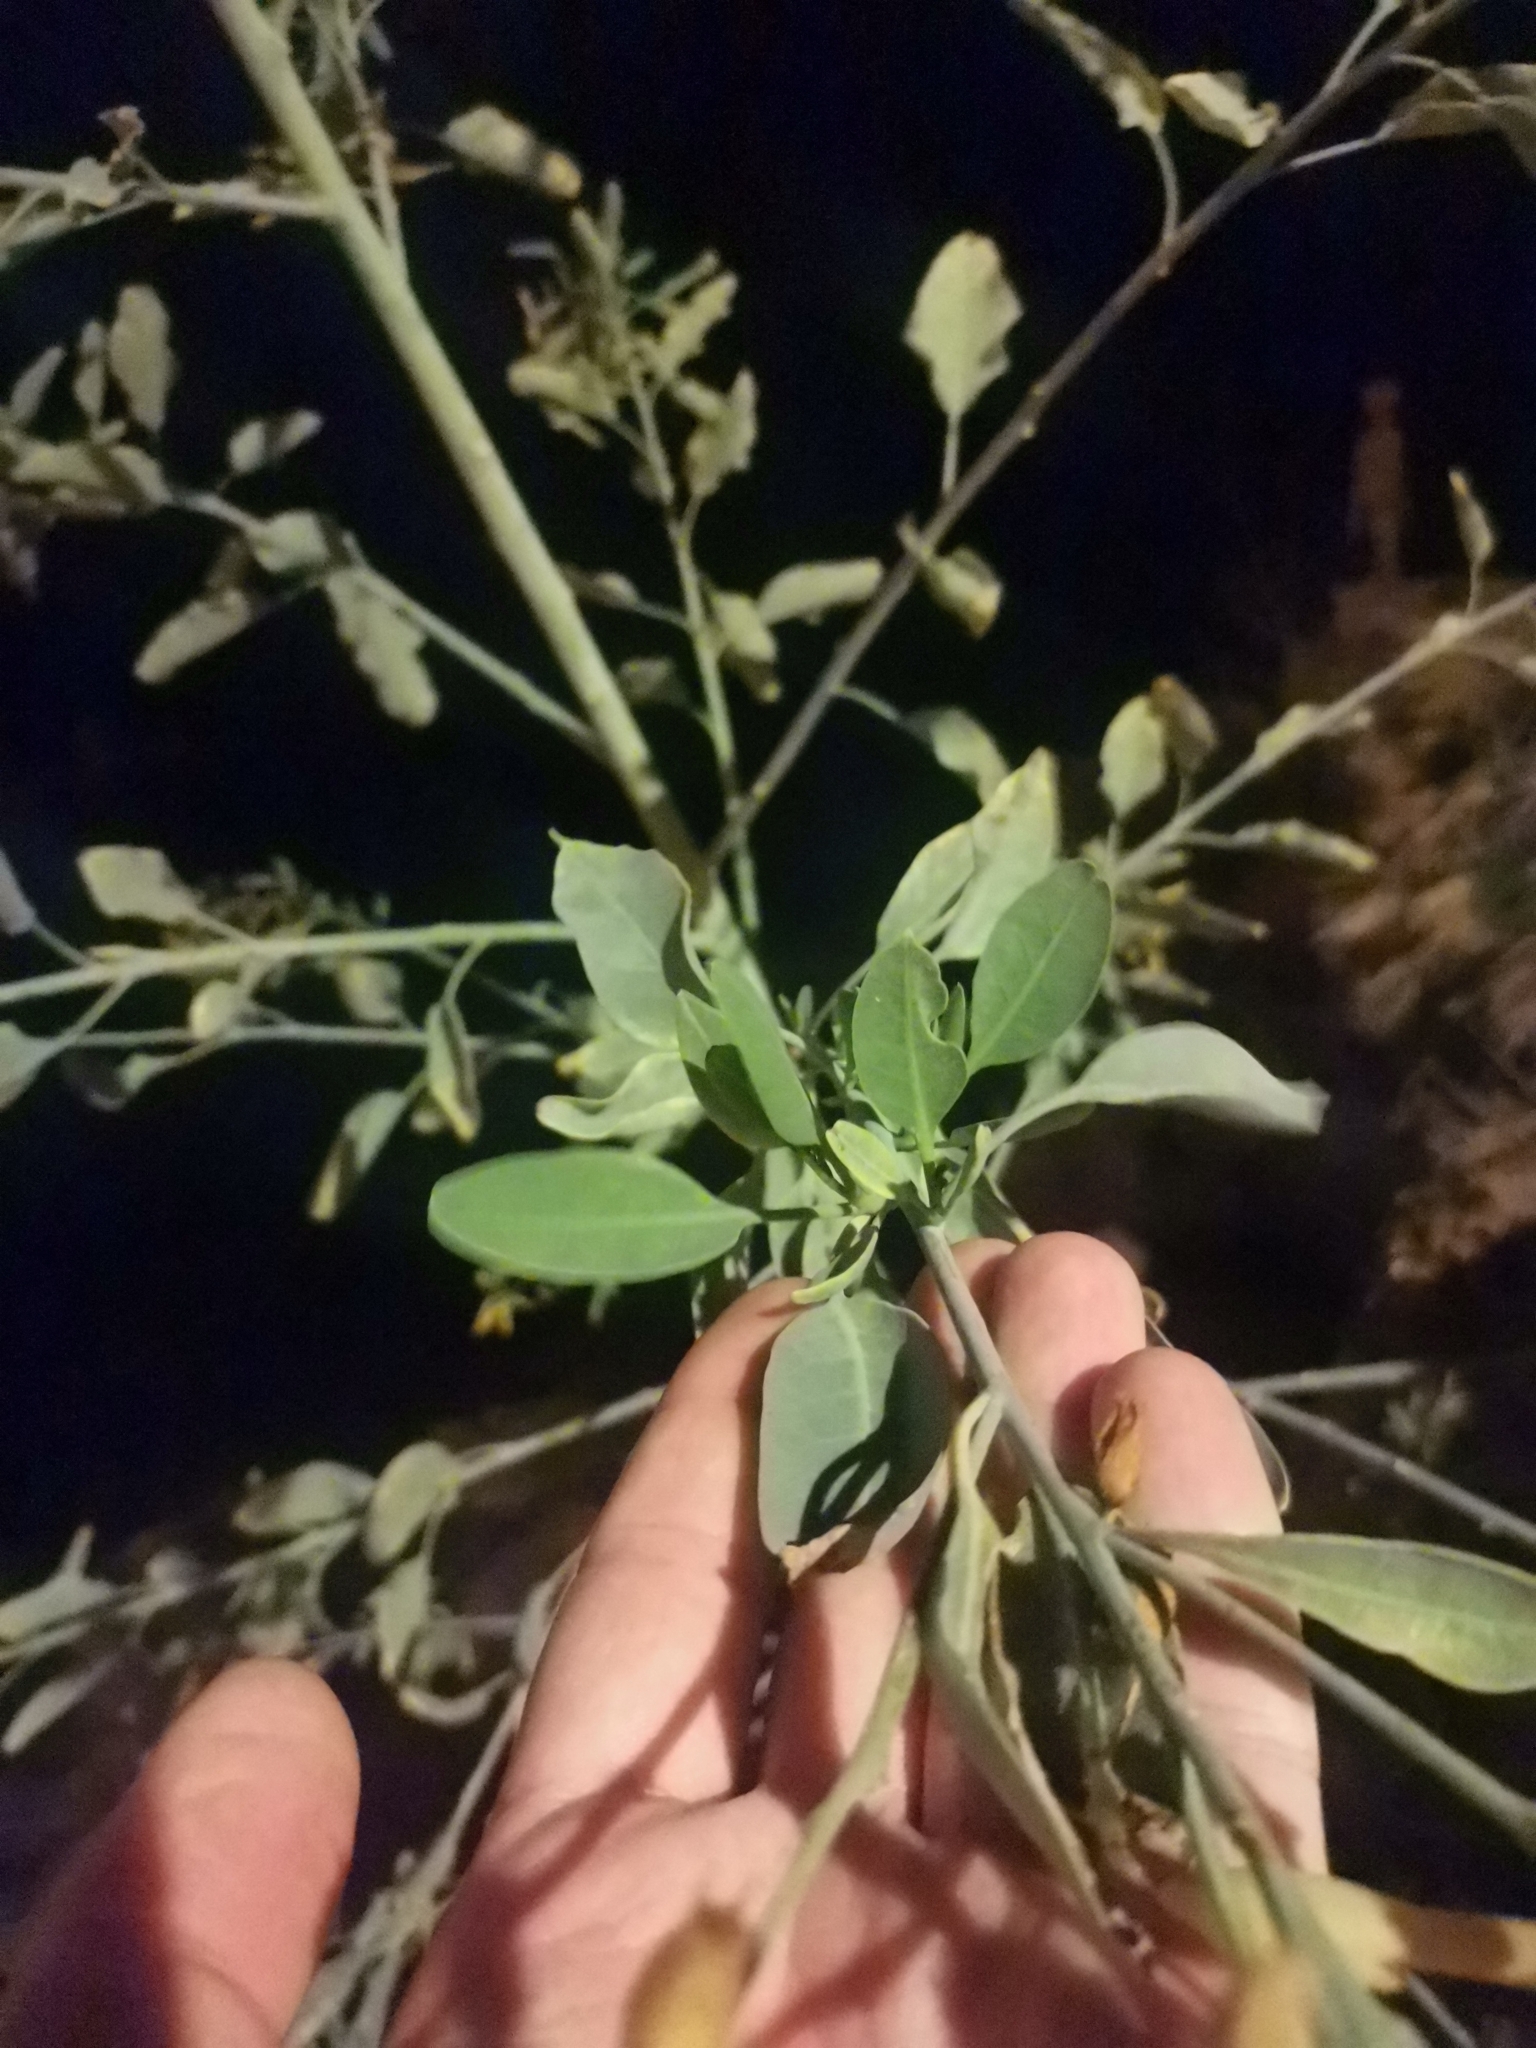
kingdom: Plantae
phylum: Tracheophyta
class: Magnoliopsida
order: Solanales
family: Solanaceae
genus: Nicotiana
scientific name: Nicotiana glauca
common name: Tree tobacco
